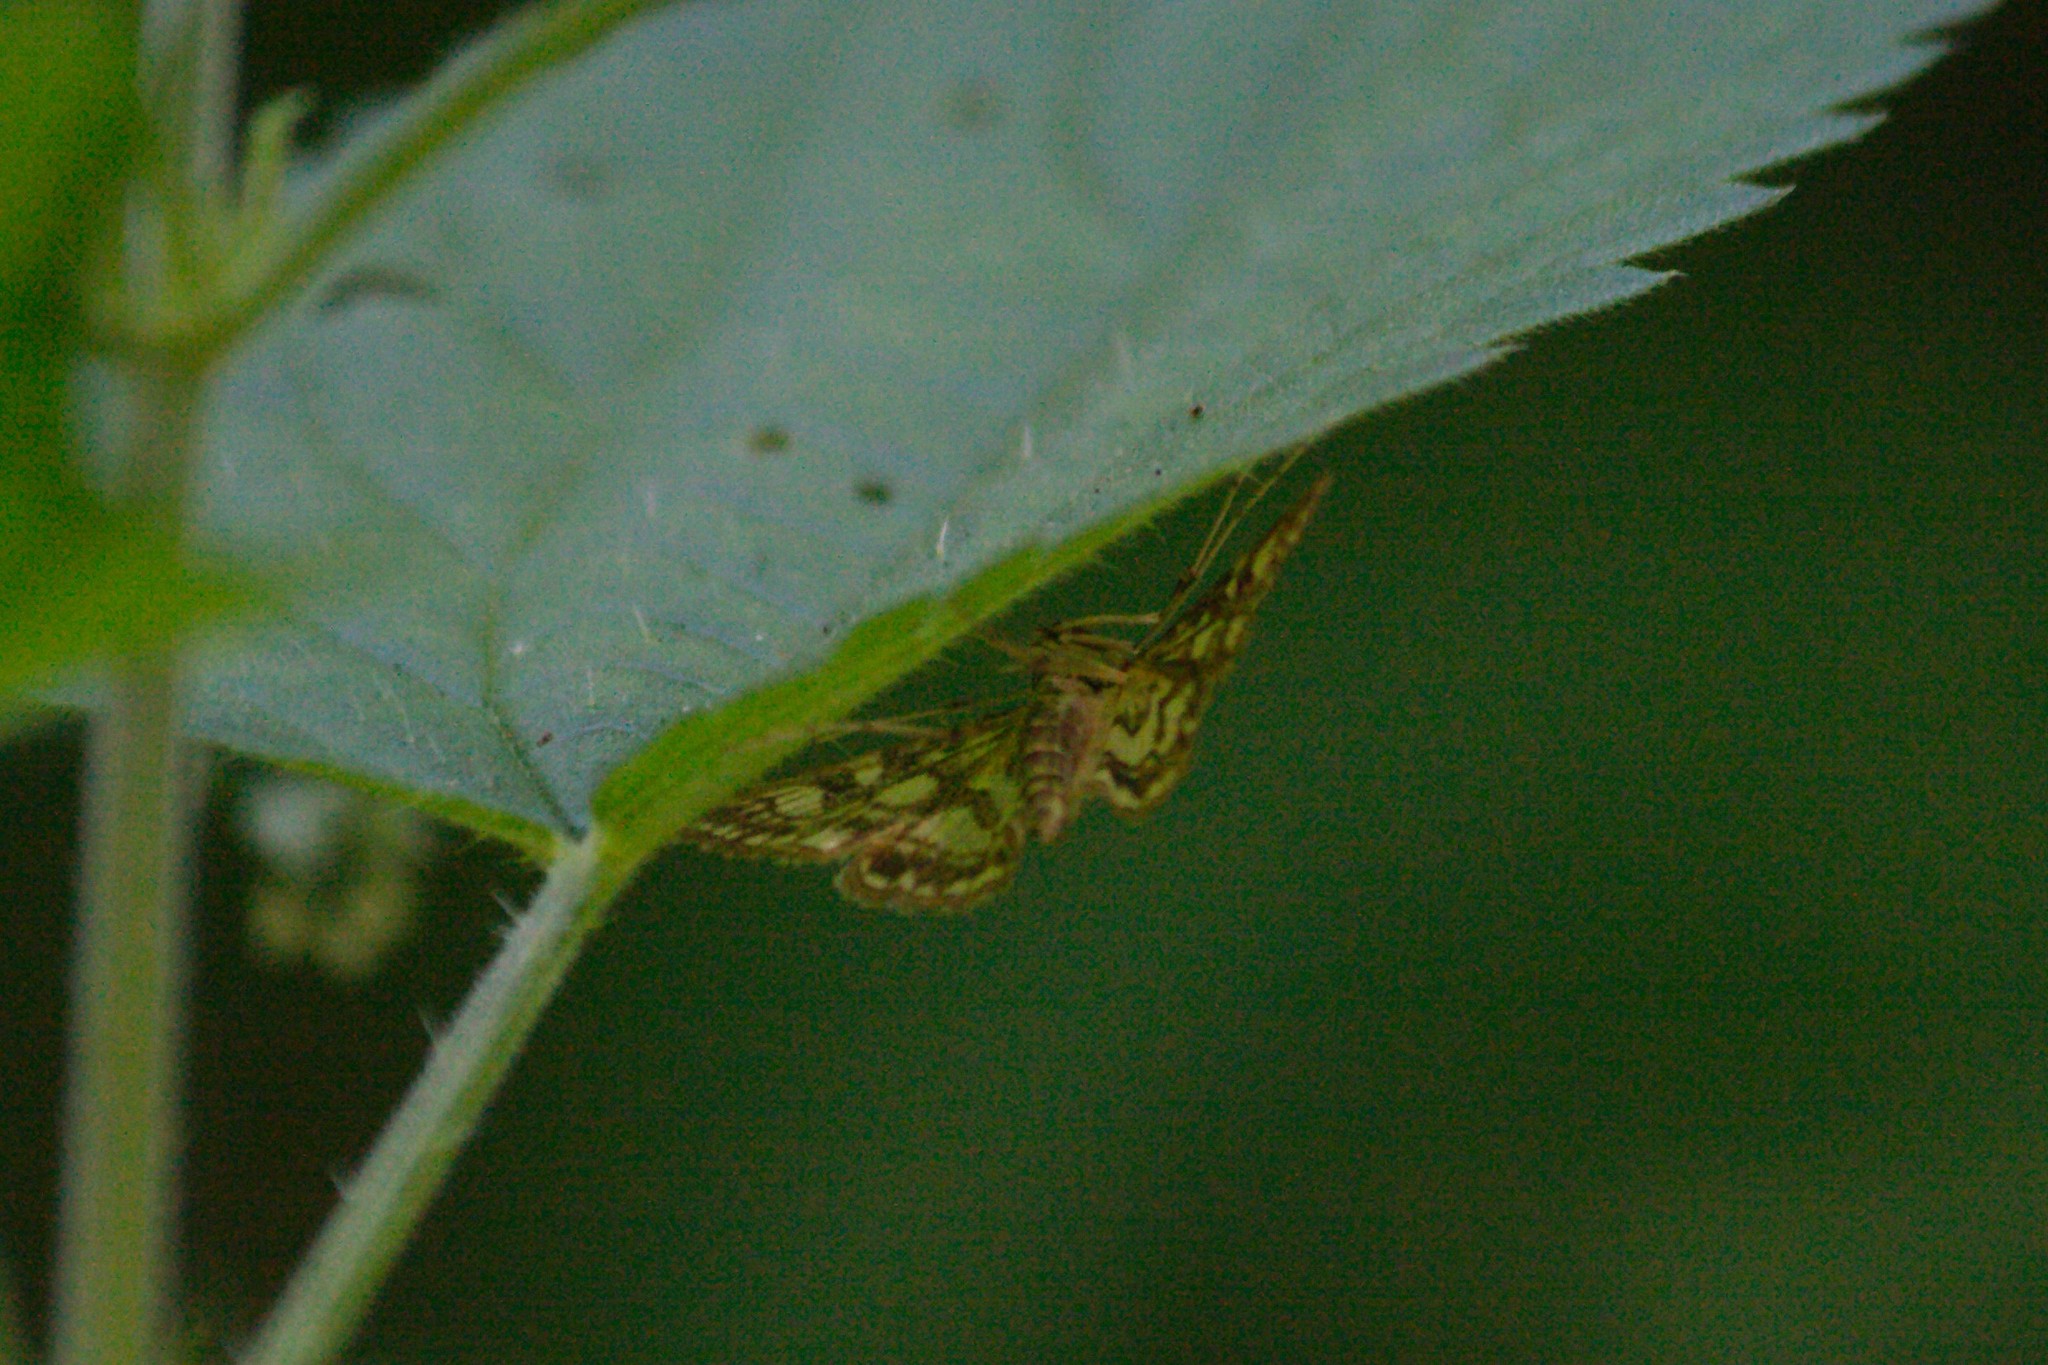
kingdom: Animalia
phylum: Arthropoda
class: Insecta
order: Lepidoptera
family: Crambidae
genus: Elophila
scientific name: Elophila nymphaeata
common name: Brown china-mark
